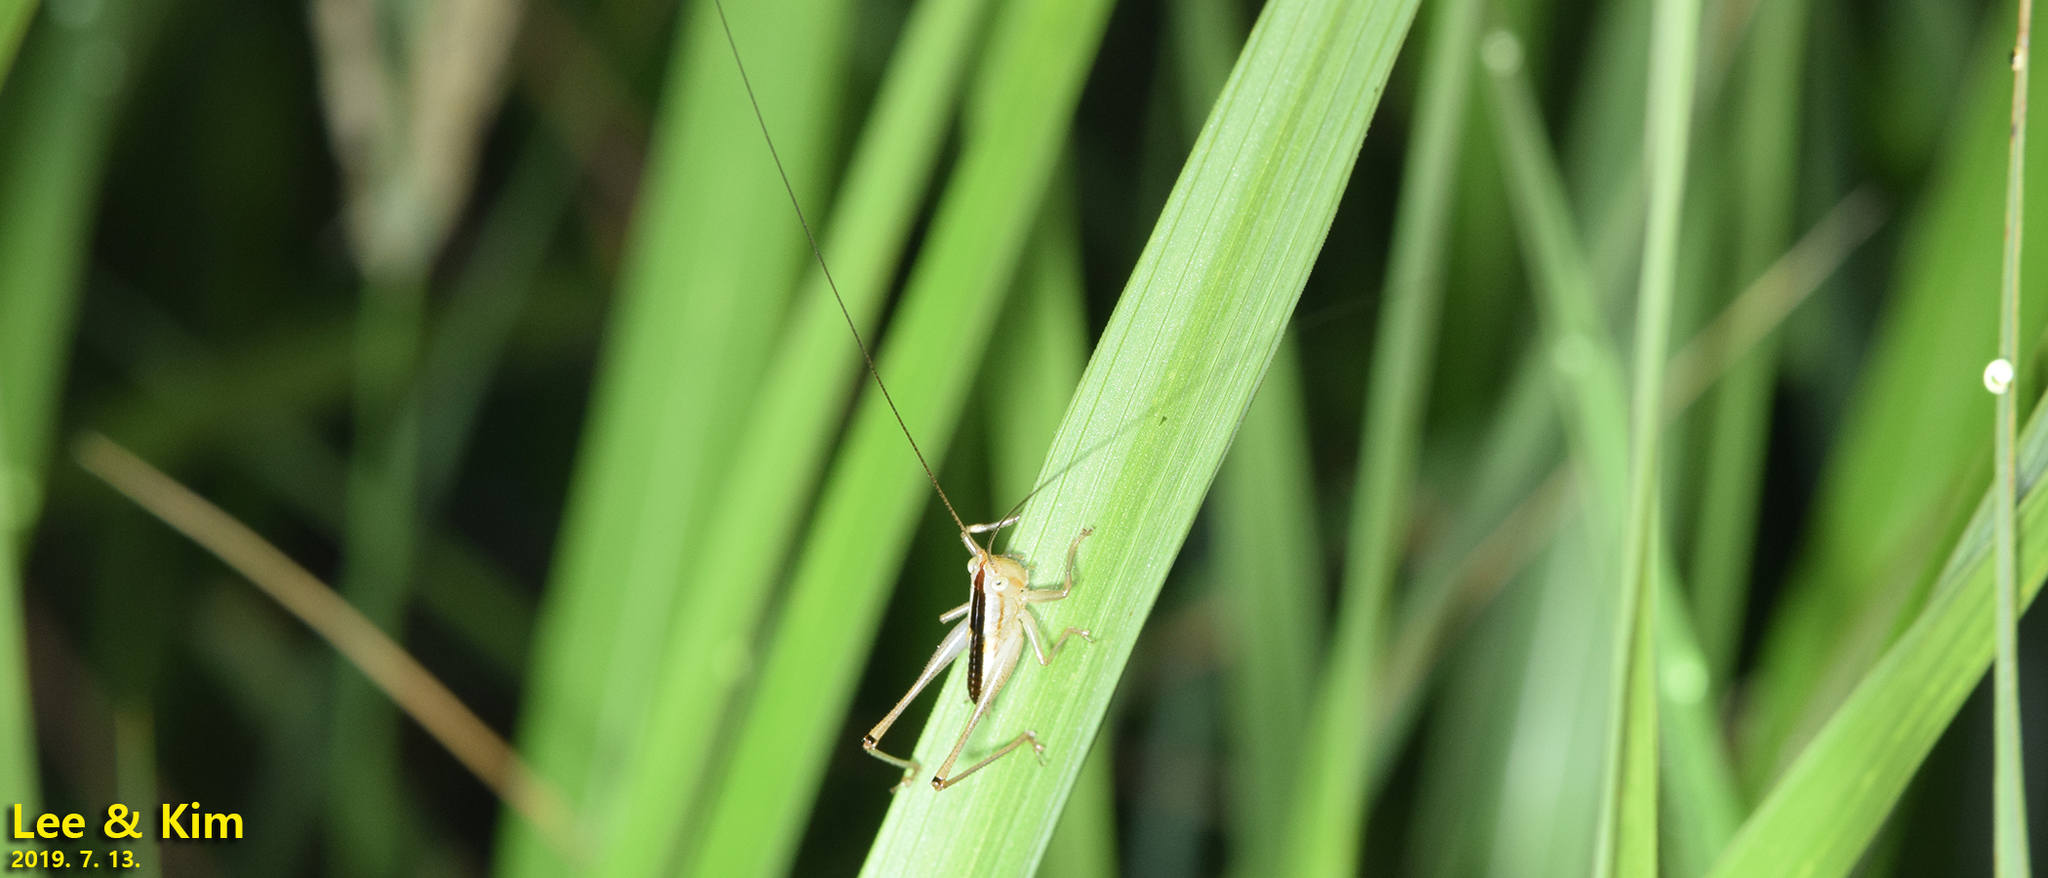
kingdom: Animalia
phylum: Arthropoda
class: Insecta
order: Orthoptera
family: Tettigoniidae
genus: Conocephalus
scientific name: Conocephalus exemptus
